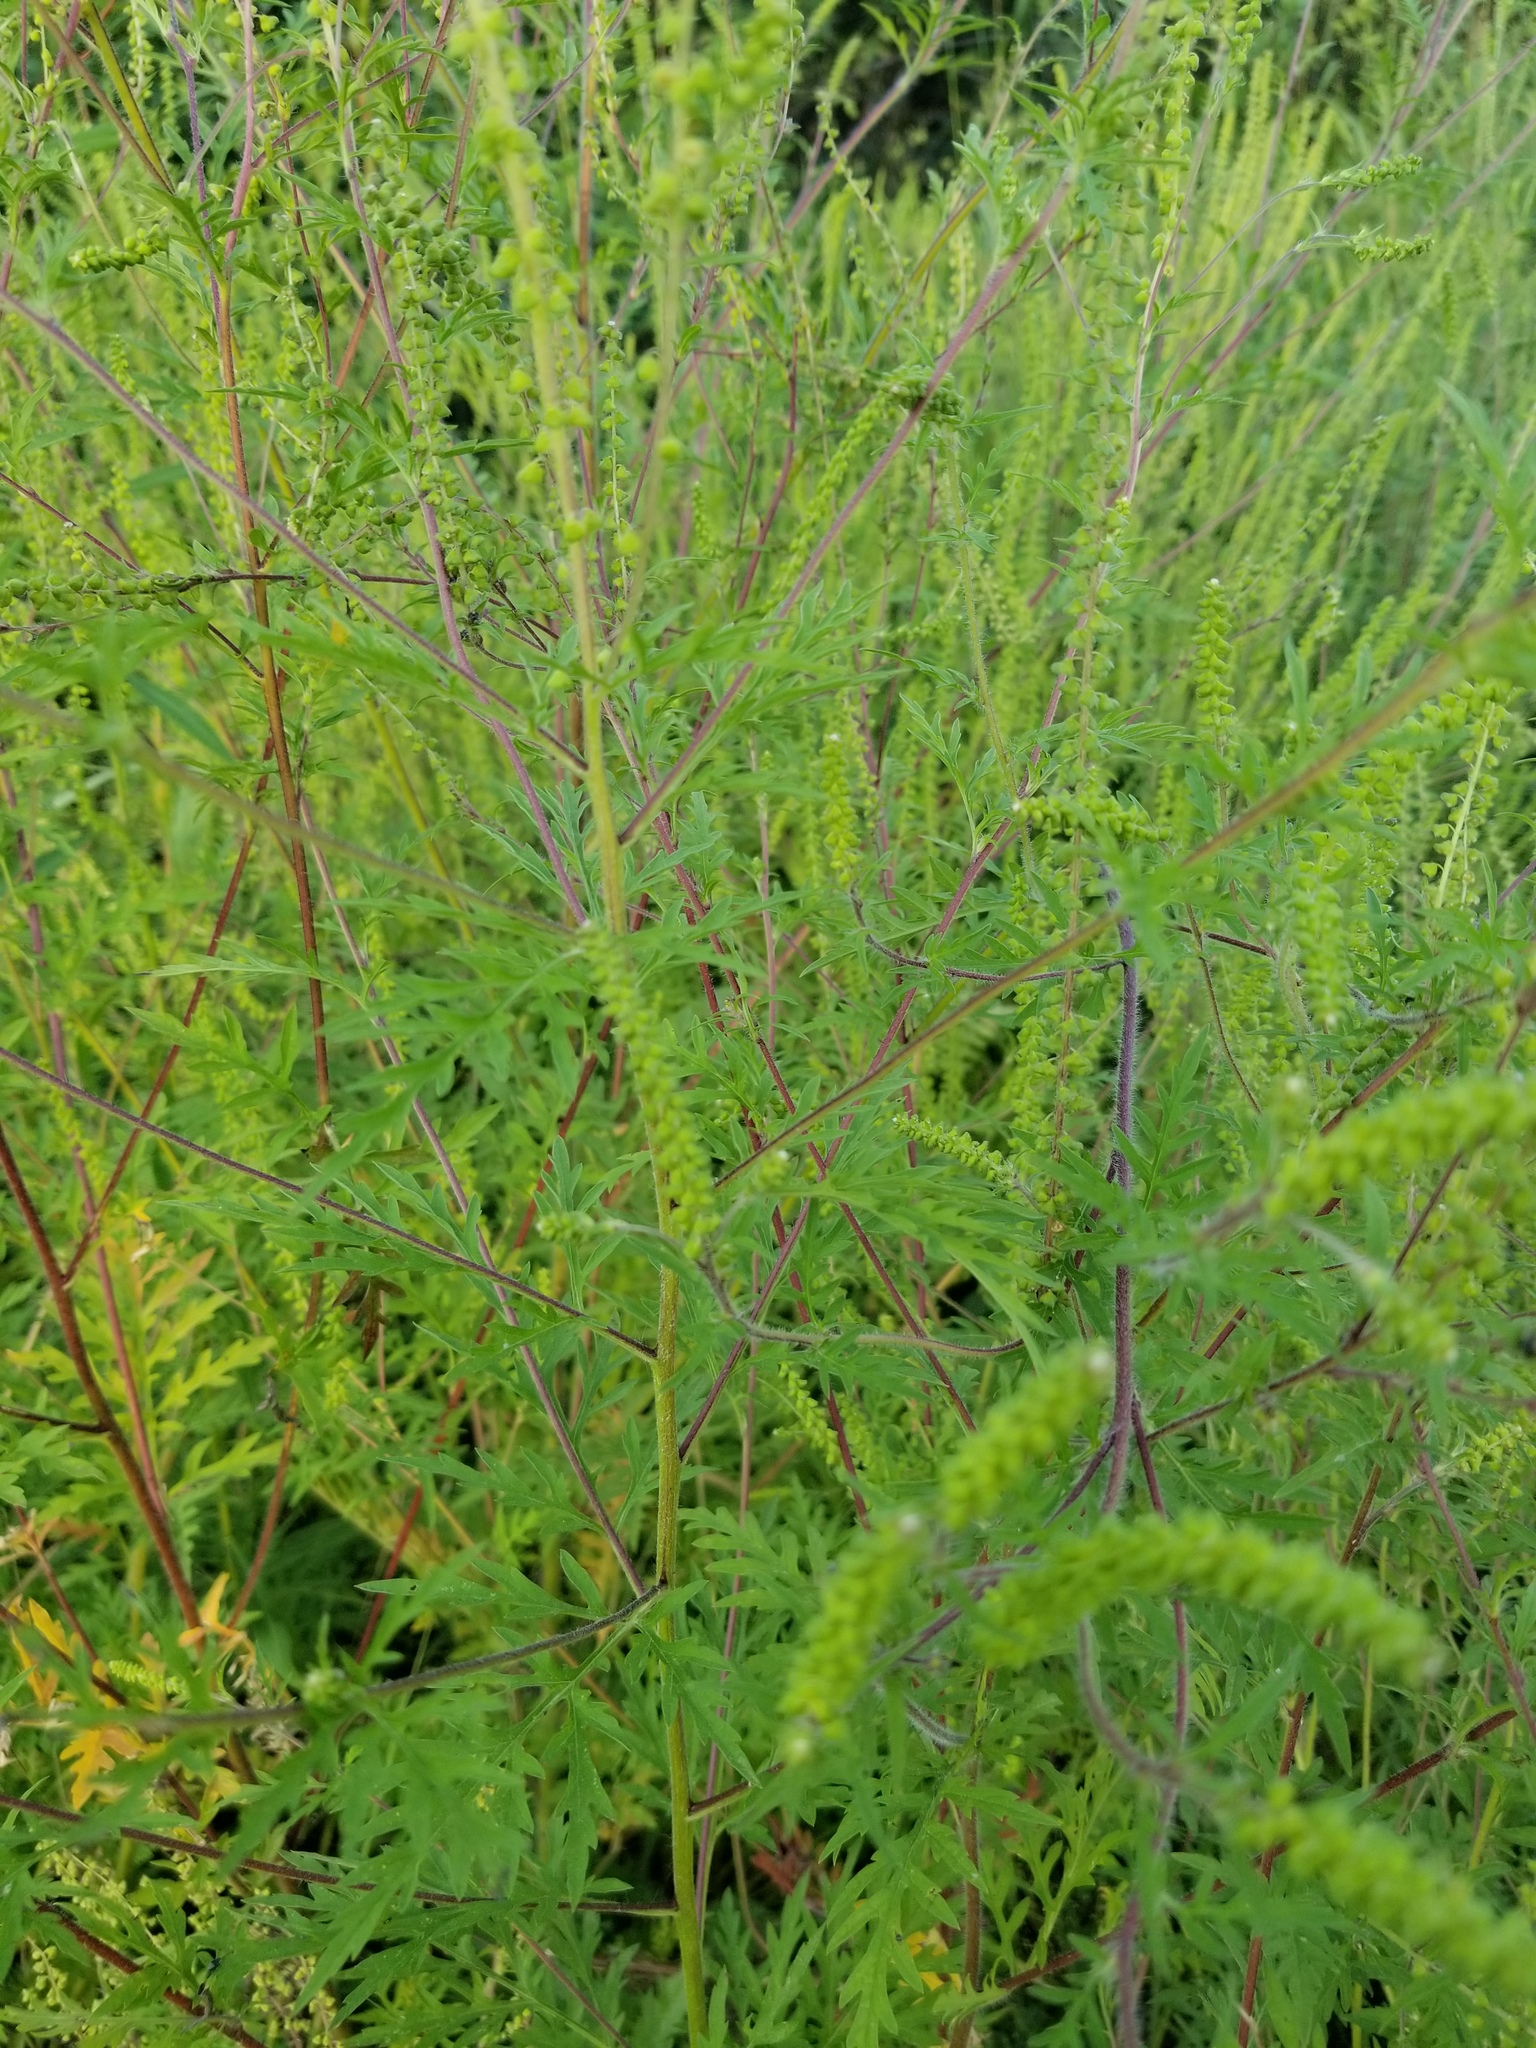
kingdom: Plantae
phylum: Tracheophyta
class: Magnoliopsida
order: Asterales
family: Asteraceae
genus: Ambrosia
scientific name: Ambrosia artemisiifolia
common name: Annual ragweed
